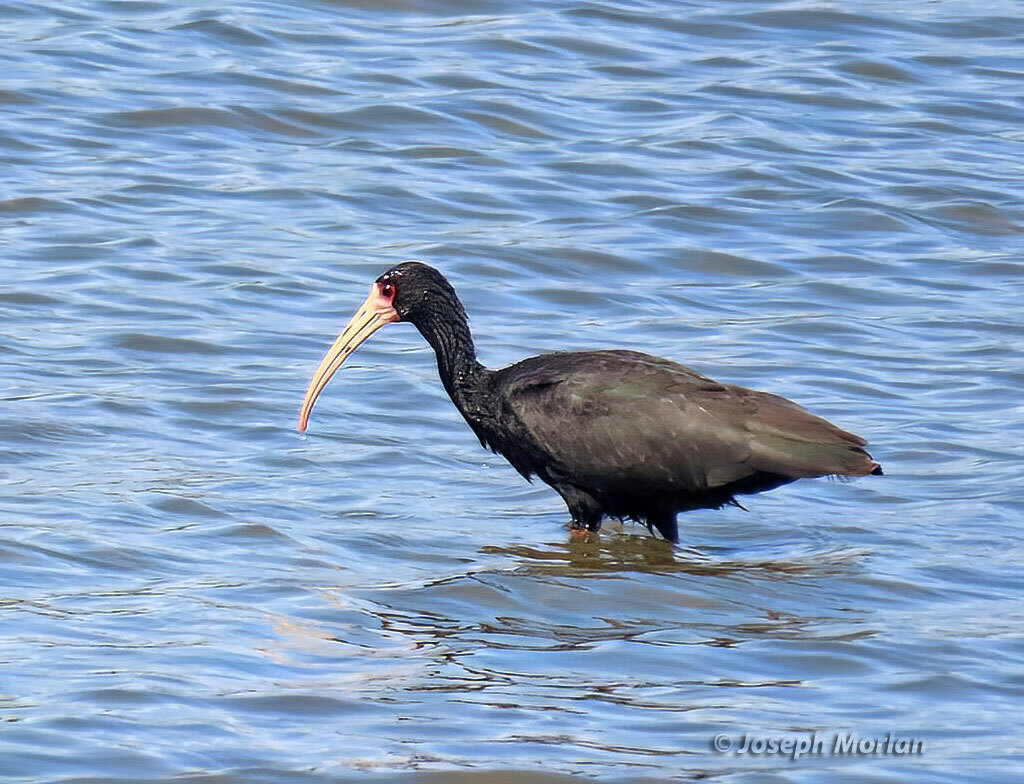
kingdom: Animalia
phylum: Chordata
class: Aves
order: Pelecaniformes
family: Threskiornithidae
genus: Phimosus
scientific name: Phimosus infuscatus
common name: Bare-faced ibis
